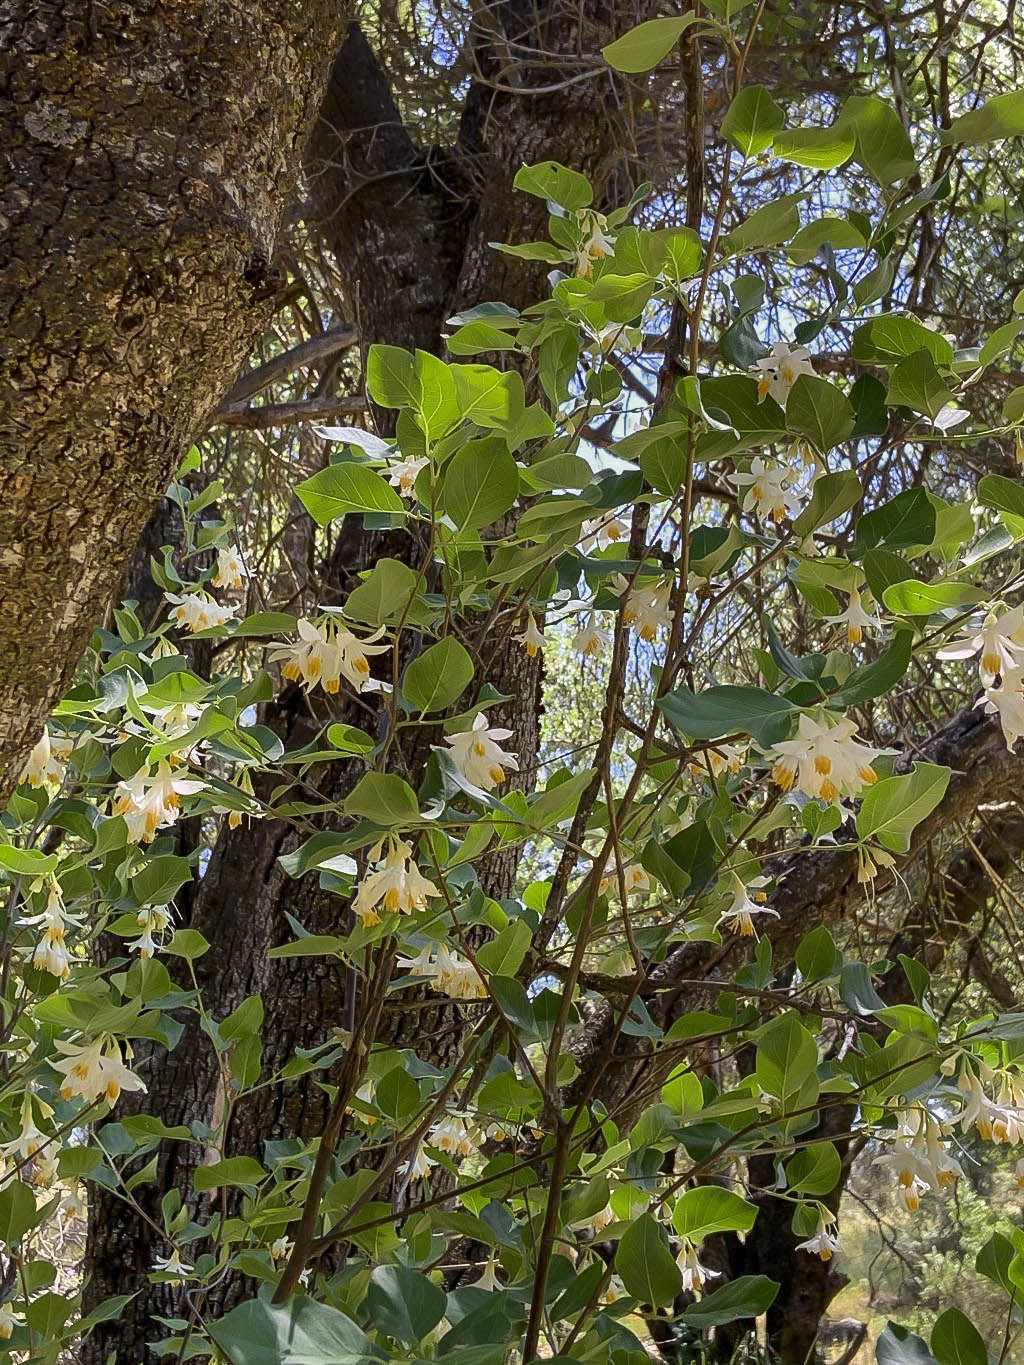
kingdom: Plantae
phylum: Tracheophyta
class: Magnoliopsida
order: Ericales
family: Styracaceae
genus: Styrax
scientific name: Styrax redivivus
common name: California styrax
